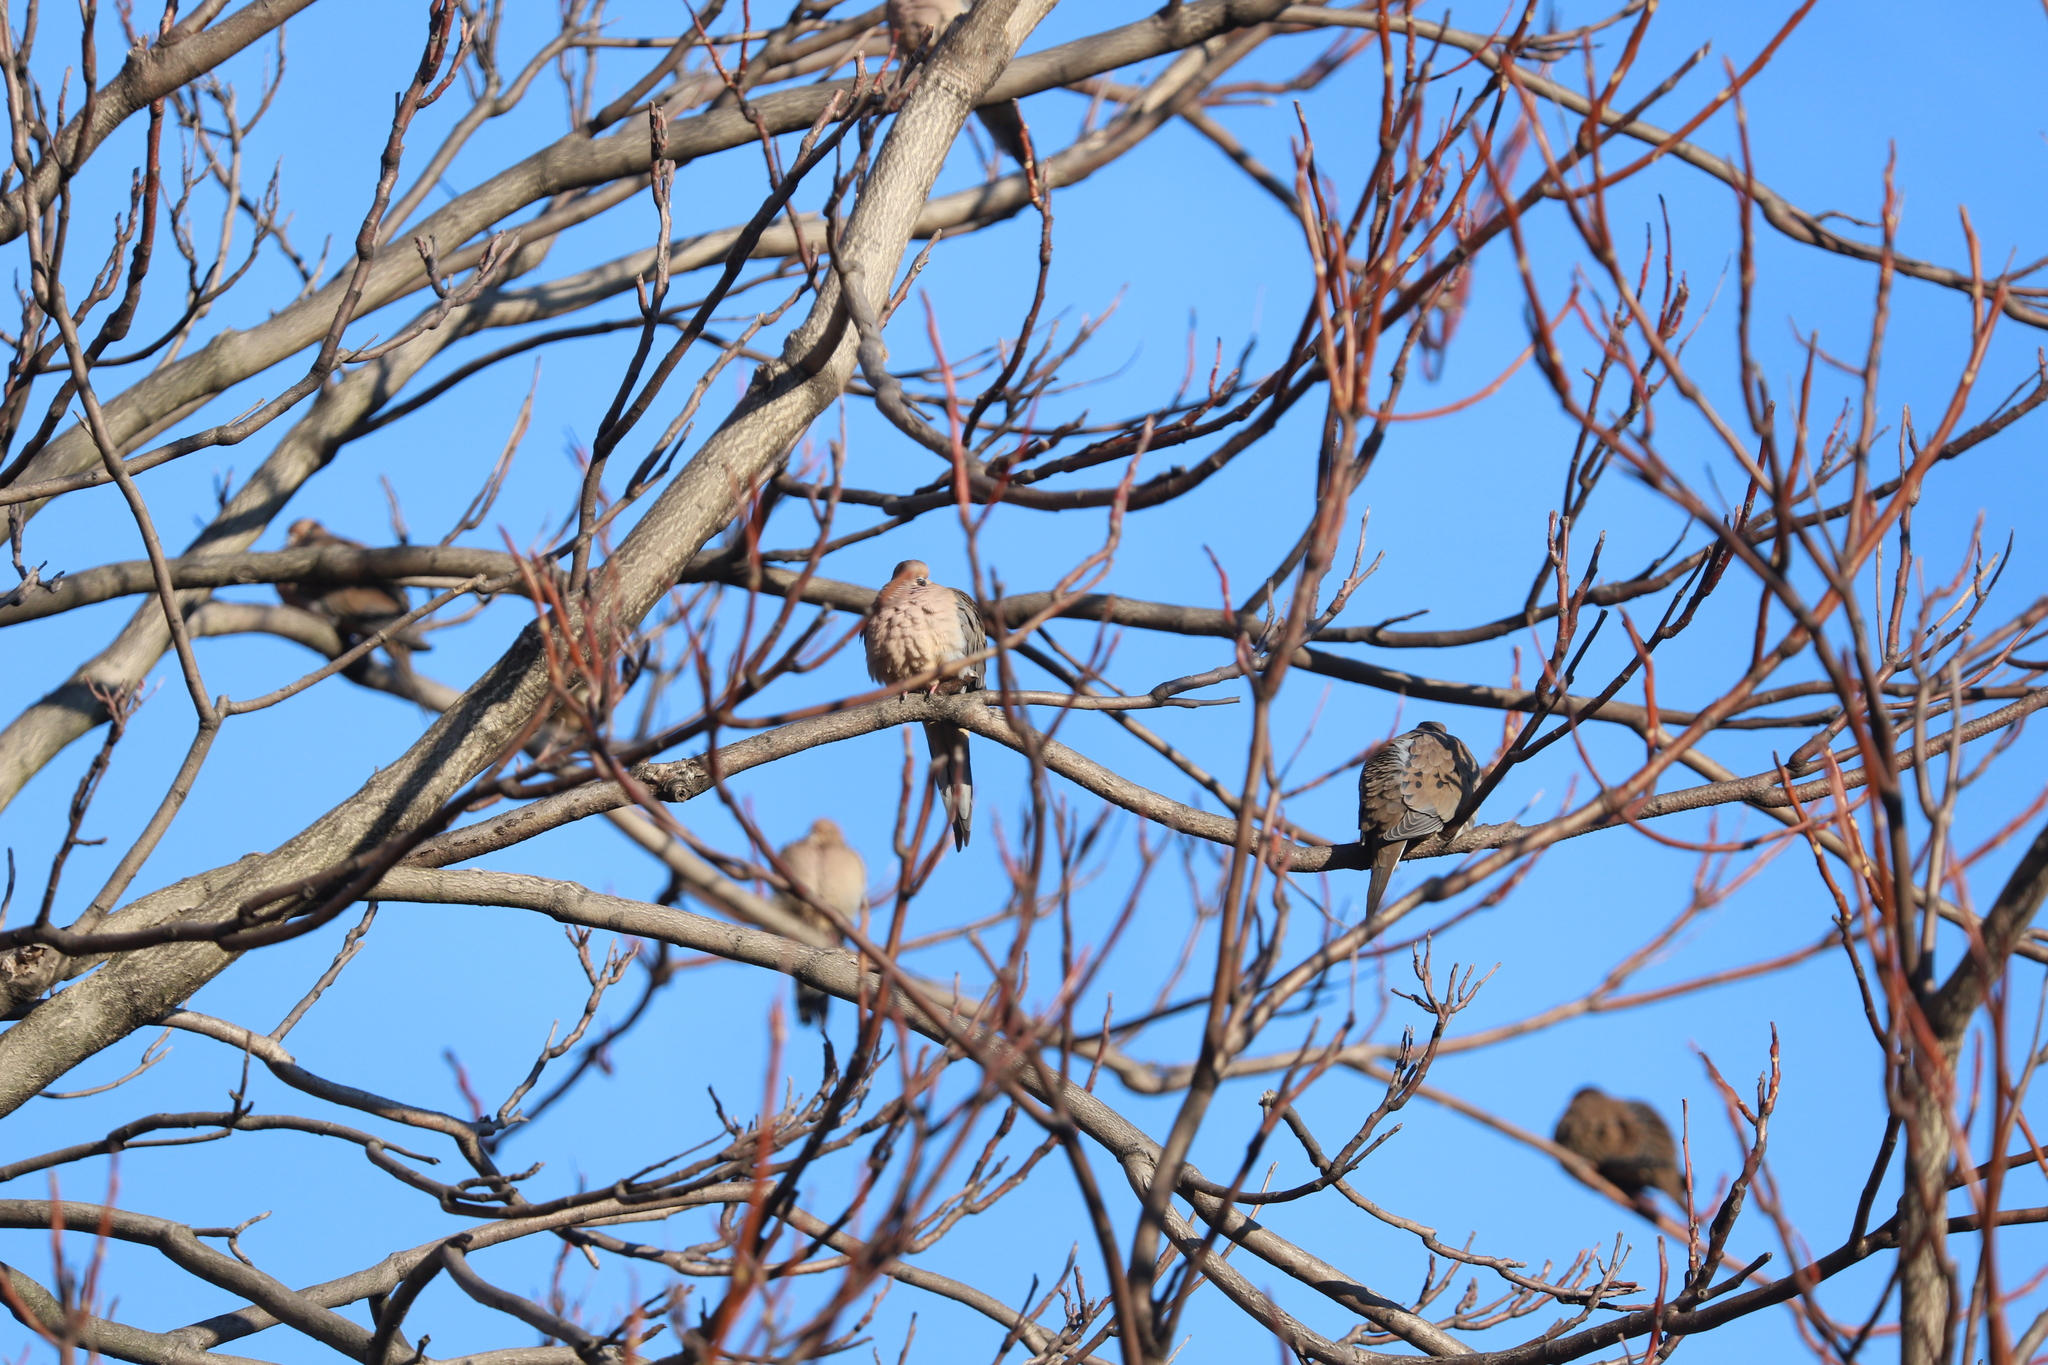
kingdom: Animalia
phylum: Chordata
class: Aves
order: Columbiformes
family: Columbidae
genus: Zenaida
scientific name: Zenaida macroura
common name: Mourning dove
